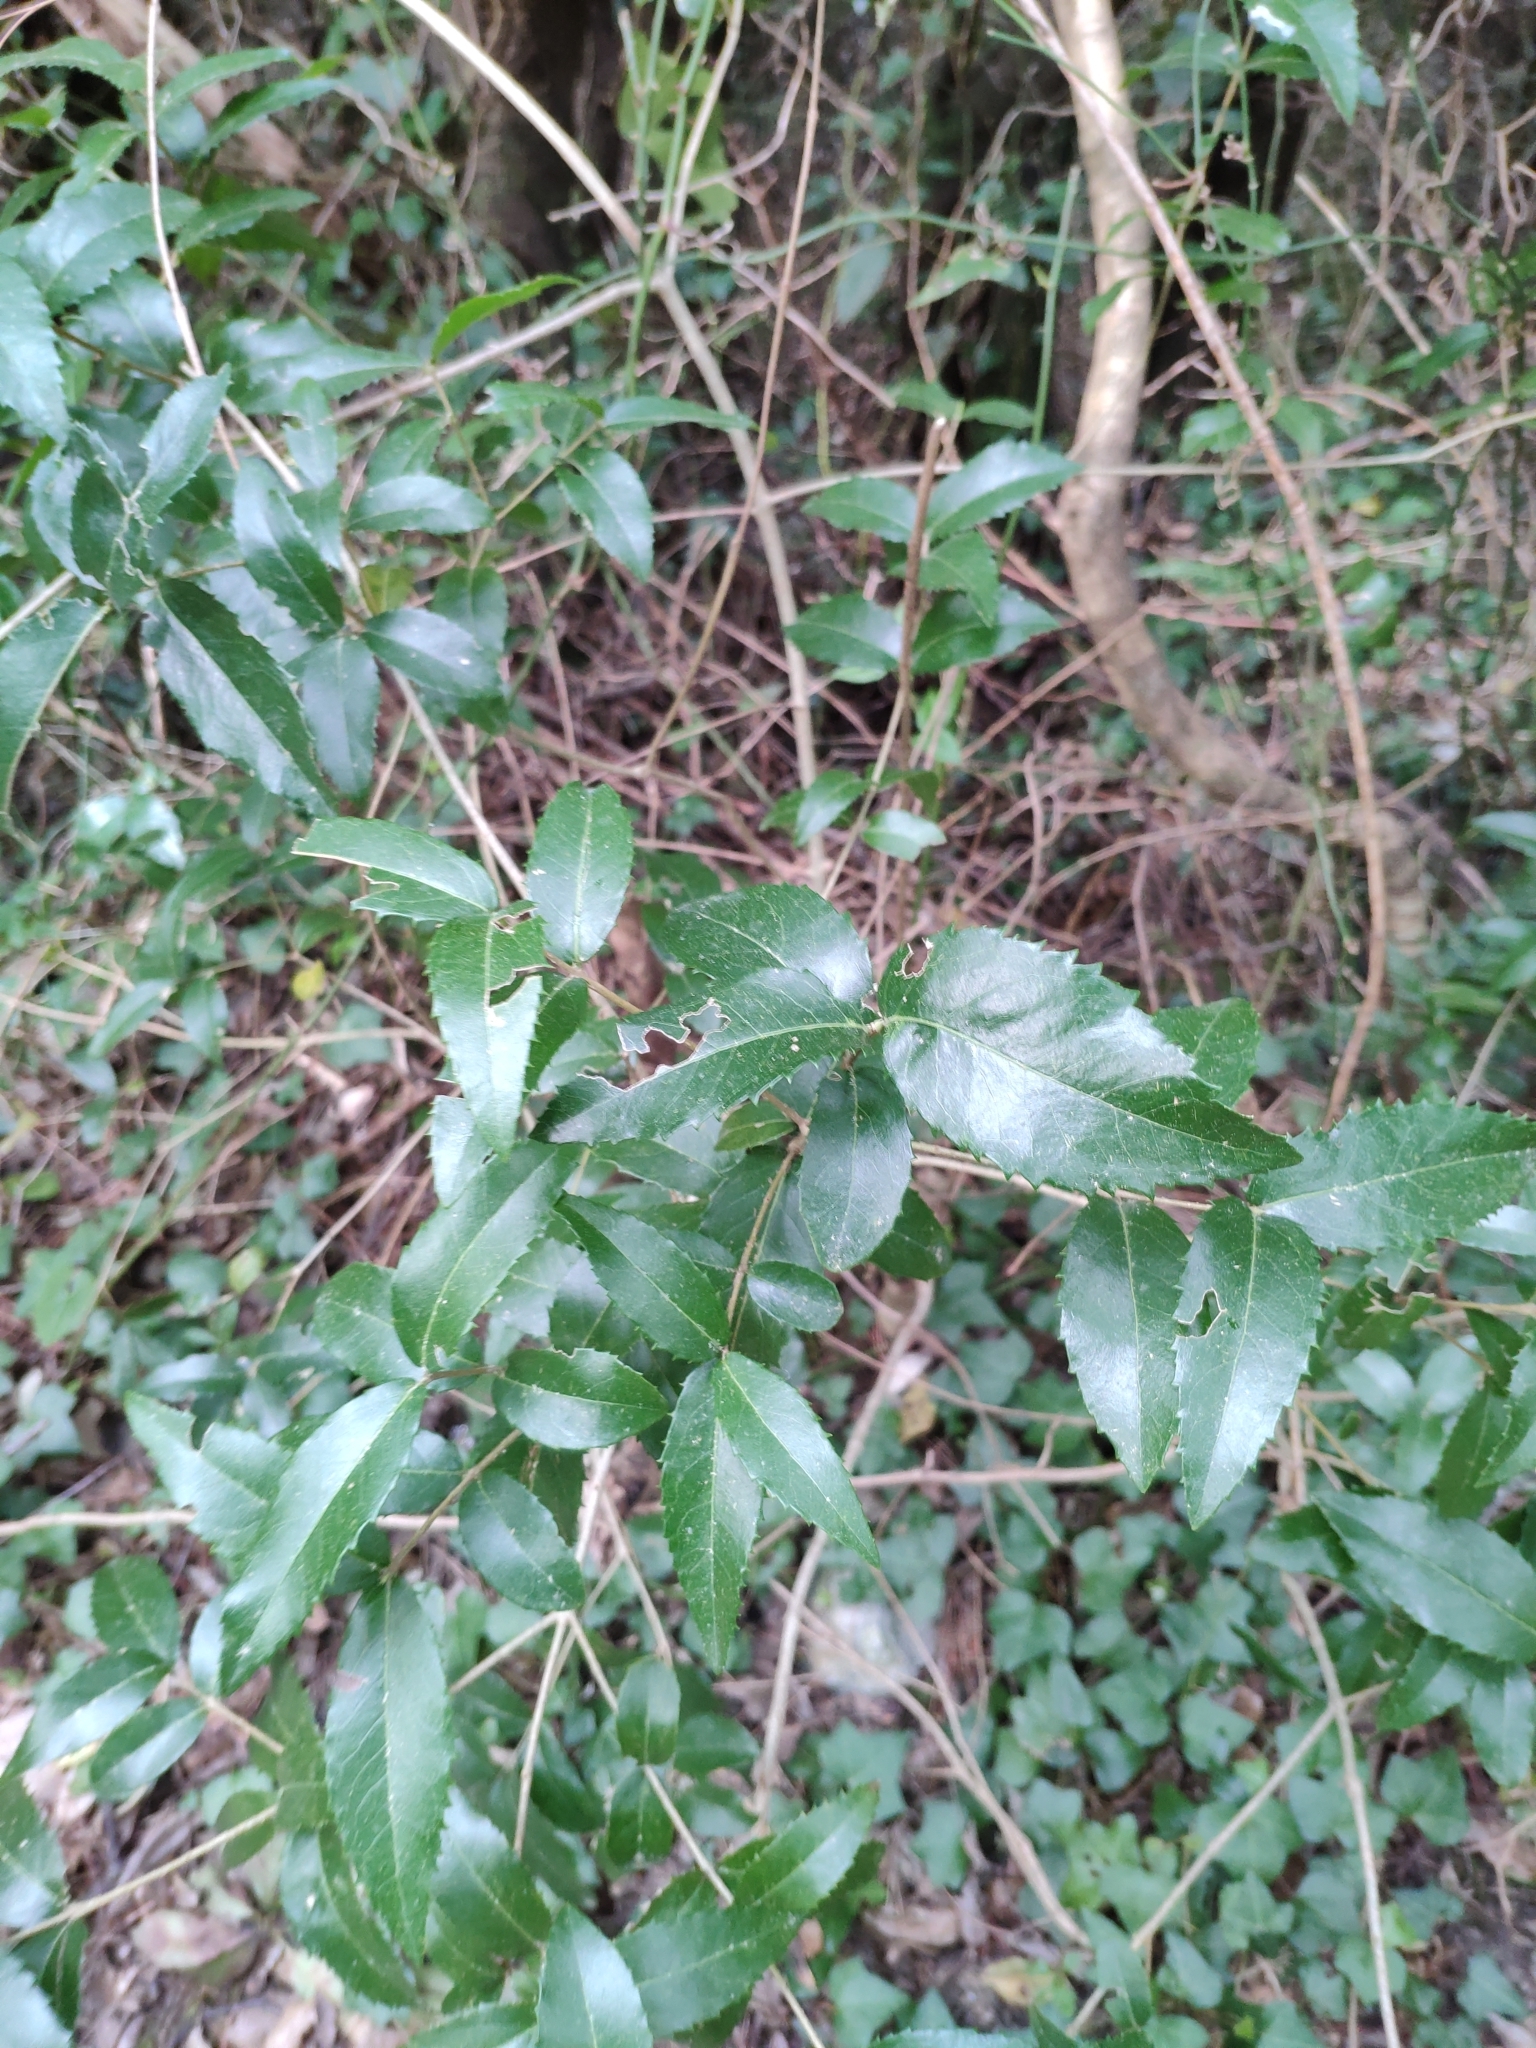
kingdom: Plantae
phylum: Tracheophyta
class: Magnoliopsida
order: Lamiales
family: Oleaceae
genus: Phillyrea
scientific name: Phillyrea latifolia
